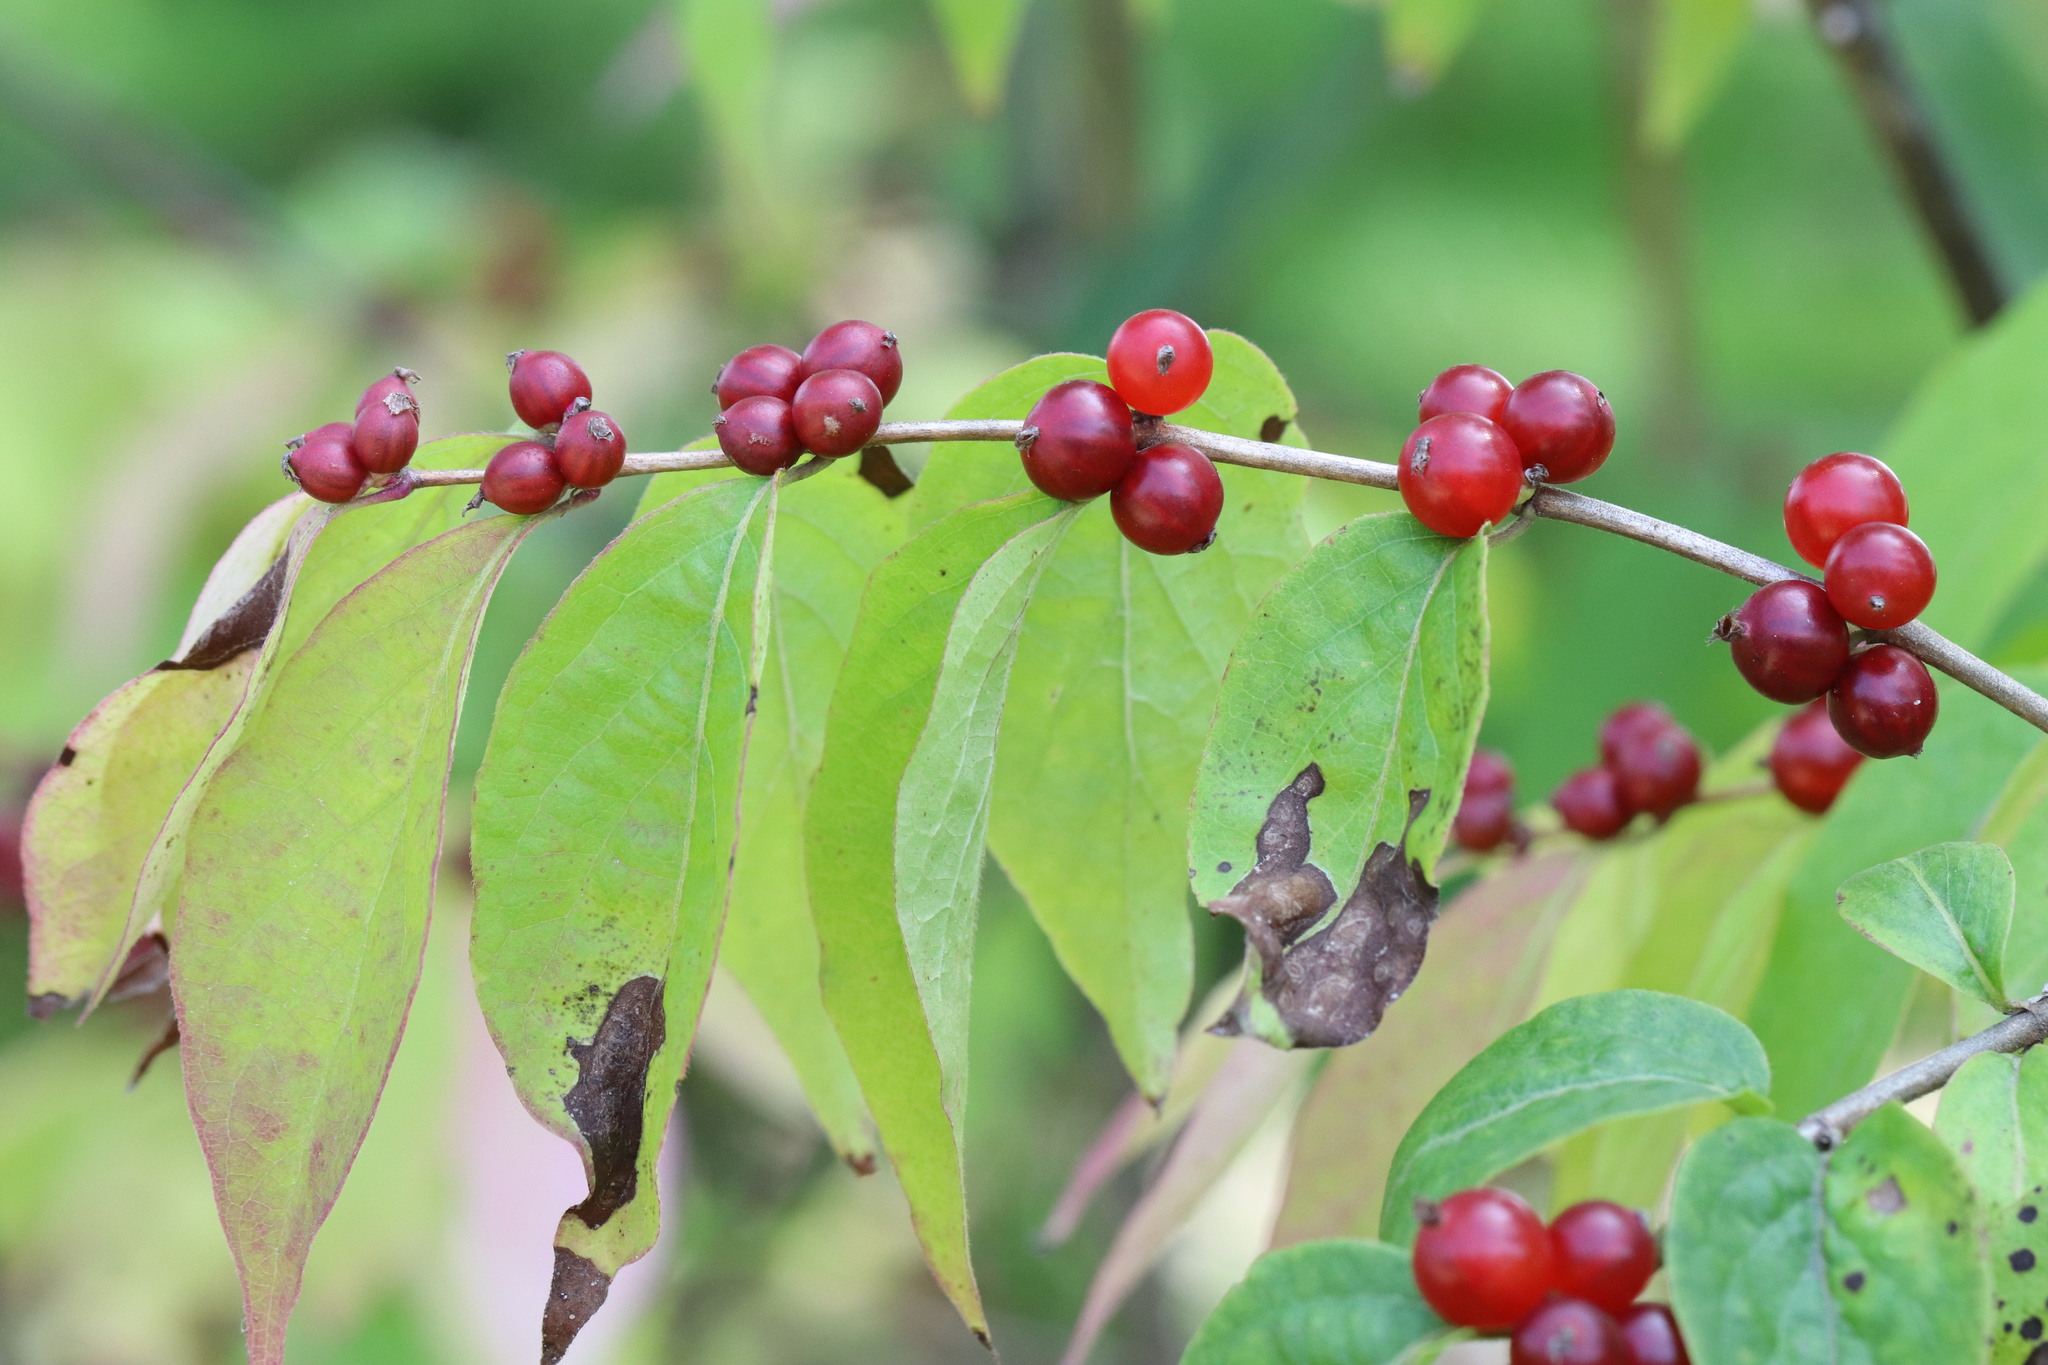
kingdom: Plantae
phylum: Tracheophyta
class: Magnoliopsida
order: Dipsacales
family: Caprifoliaceae
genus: Lonicera
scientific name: Lonicera maackii
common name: Amur honeysuckle
